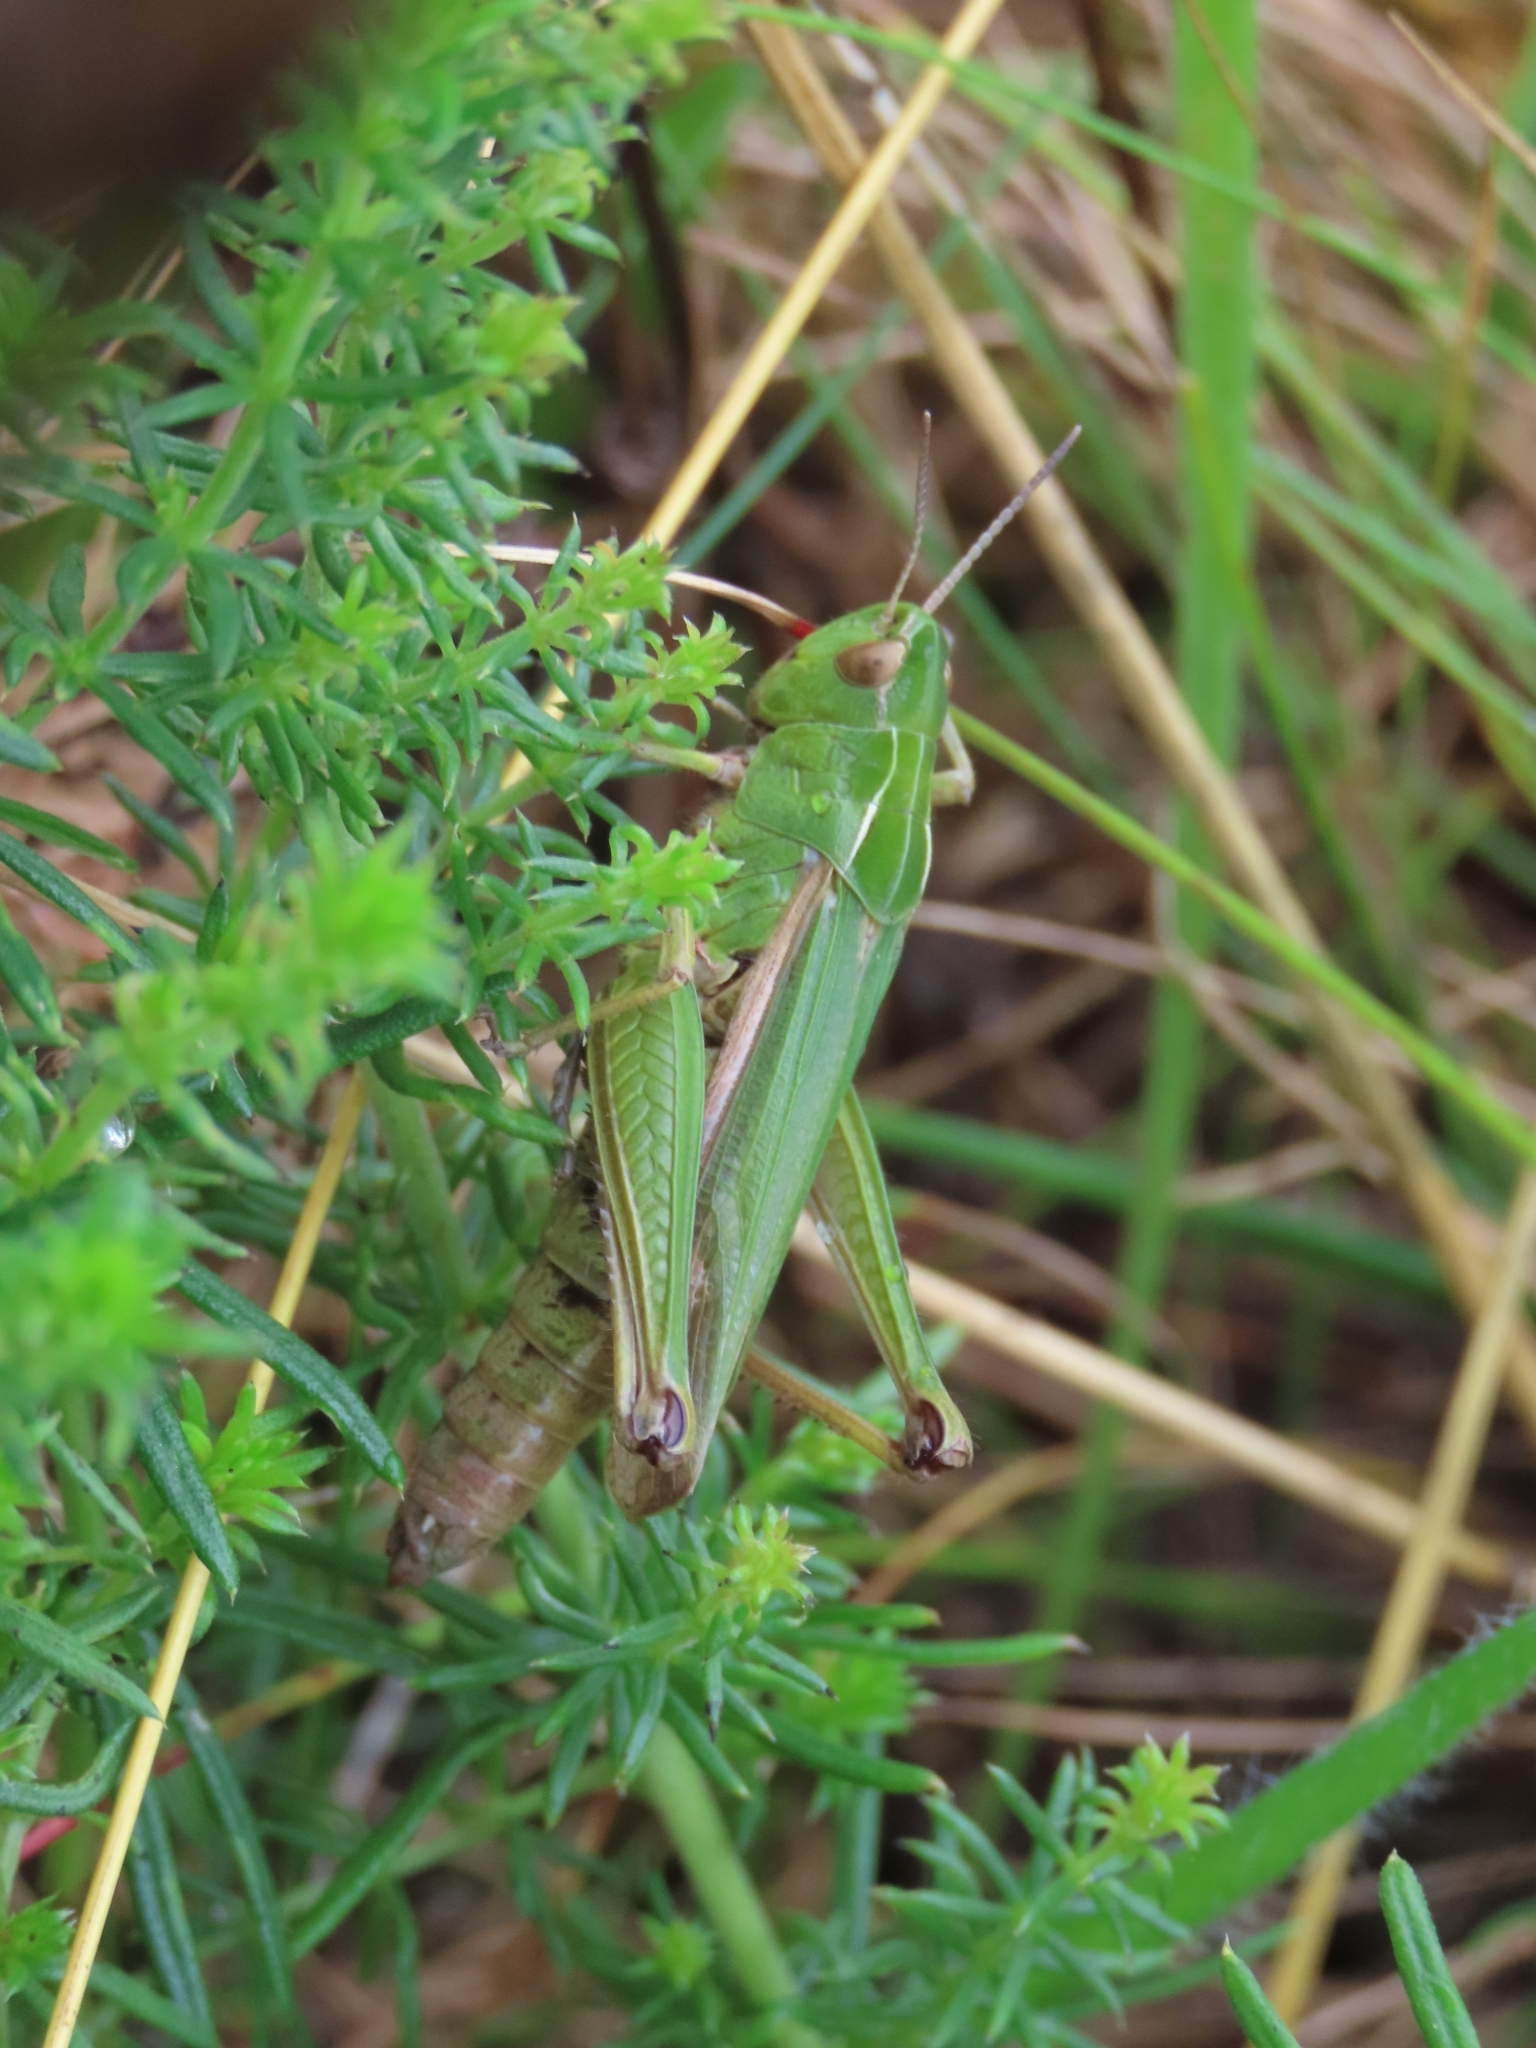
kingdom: Animalia
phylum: Arthropoda
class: Insecta
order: Orthoptera
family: Acrididae
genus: Omocestus
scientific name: Omocestus viridulus
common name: Common green grasshopper
